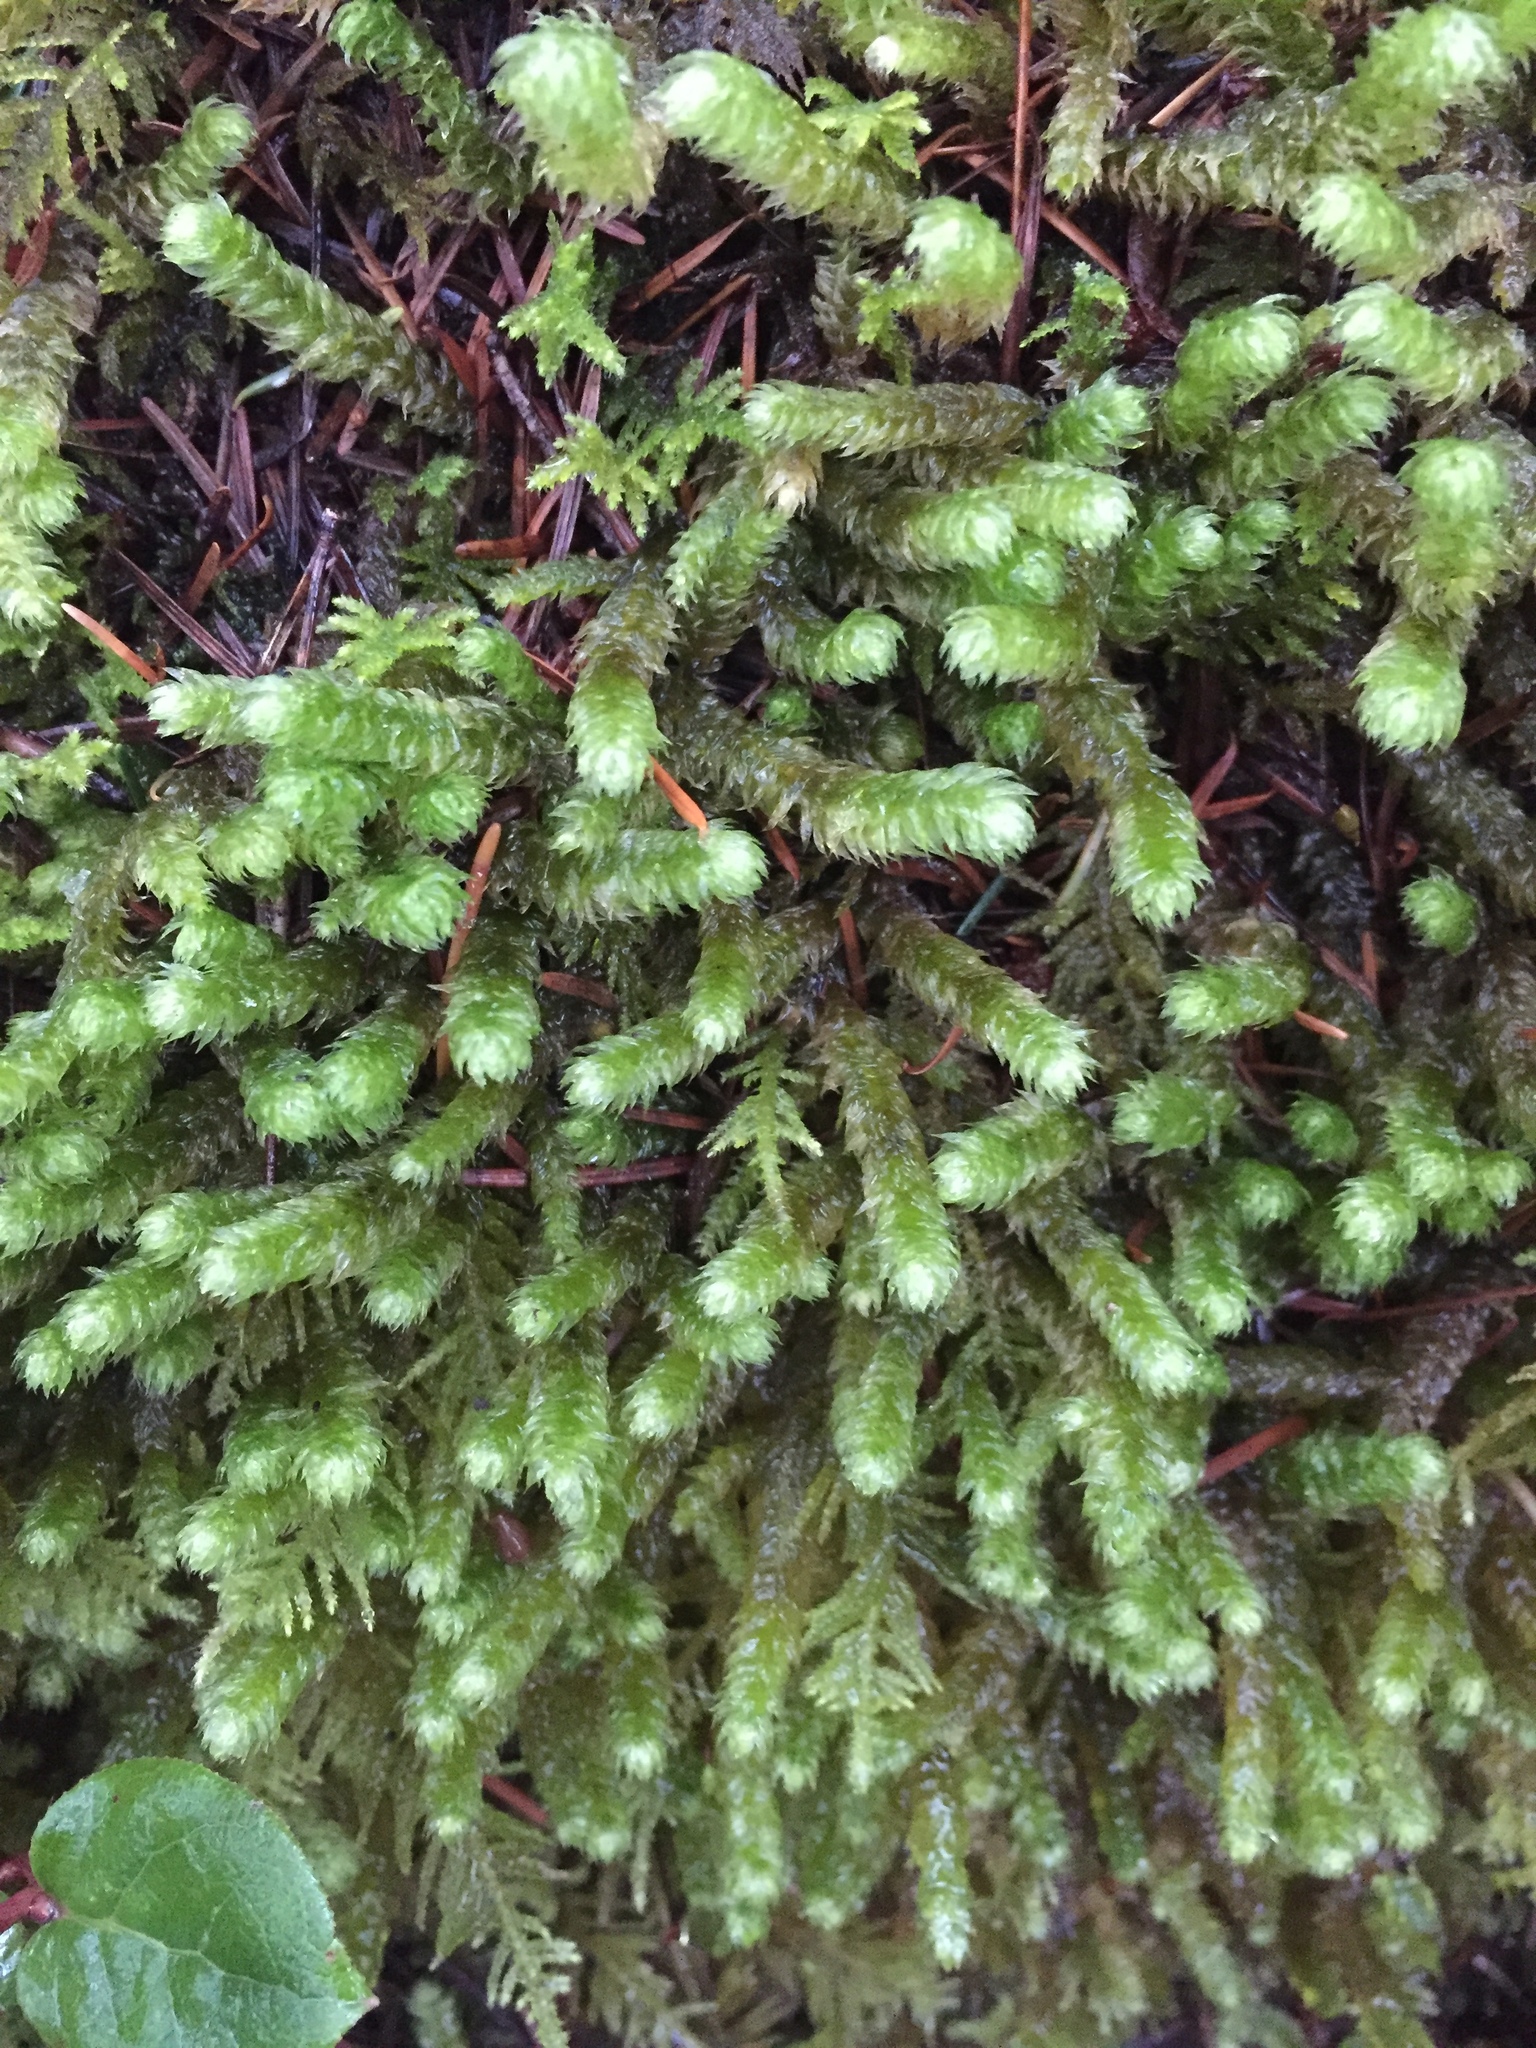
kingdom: Plantae
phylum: Bryophyta
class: Bryopsida
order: Hypnales
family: Hylocomiaceae
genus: Rhytidiopsis
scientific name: Rhytidiopsis robusta
